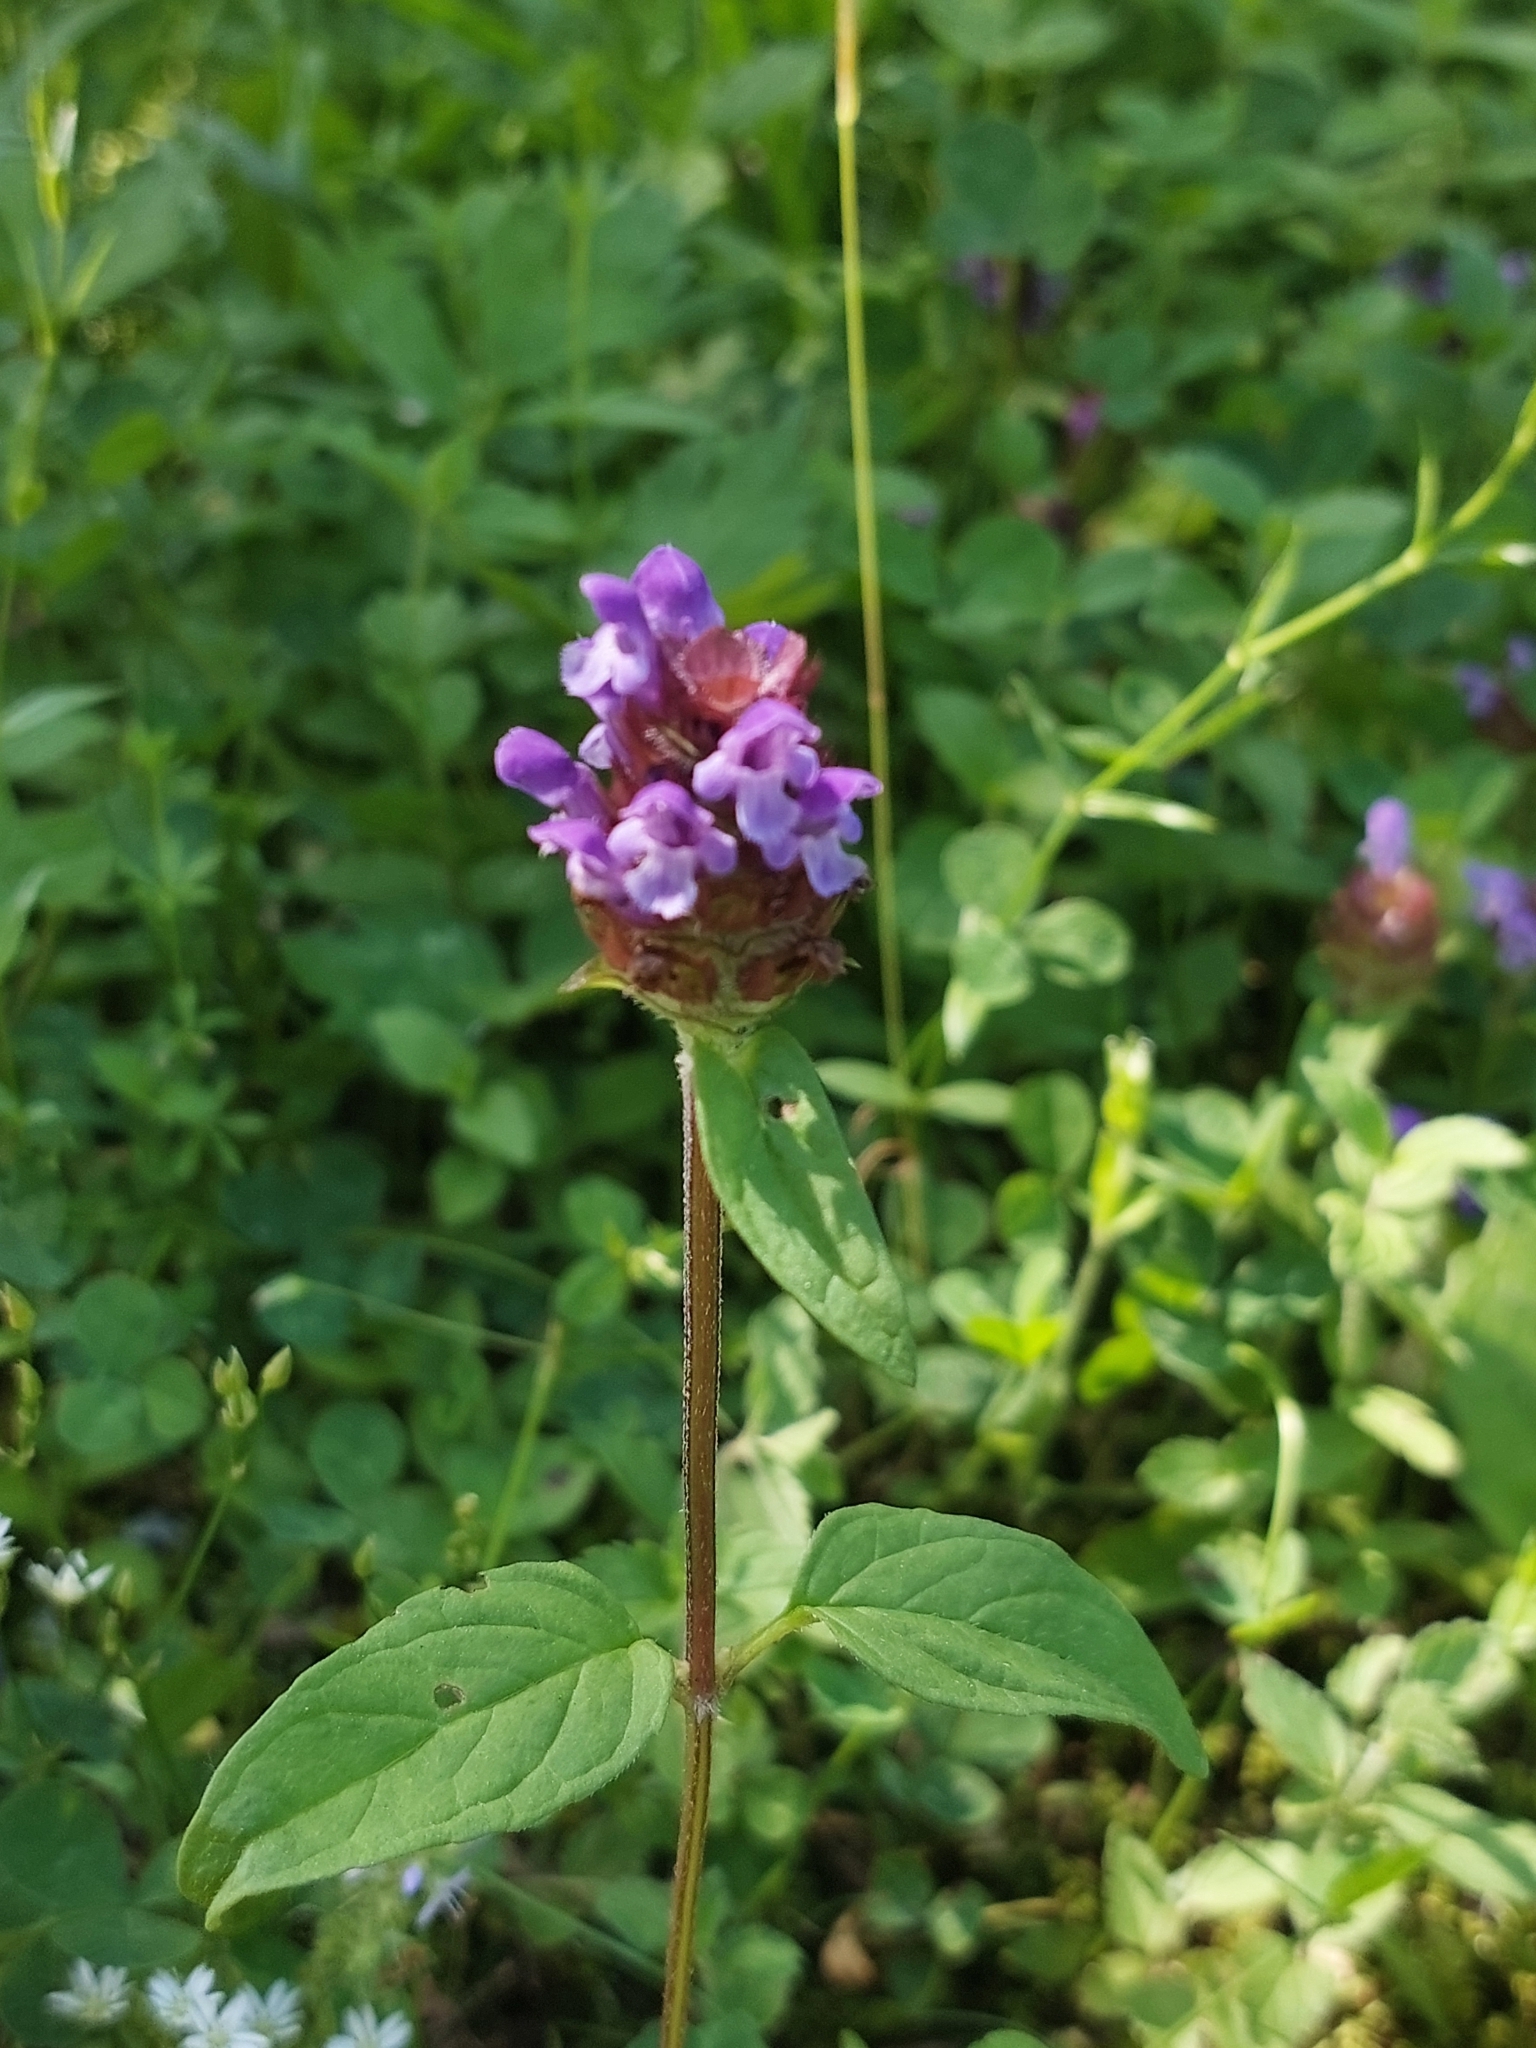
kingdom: Plantae
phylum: Tracheophyta
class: Magnoliopsida
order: Lamiales
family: Lamiaceae
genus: Prunella
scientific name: Prunella vulgaris
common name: Heal-all
